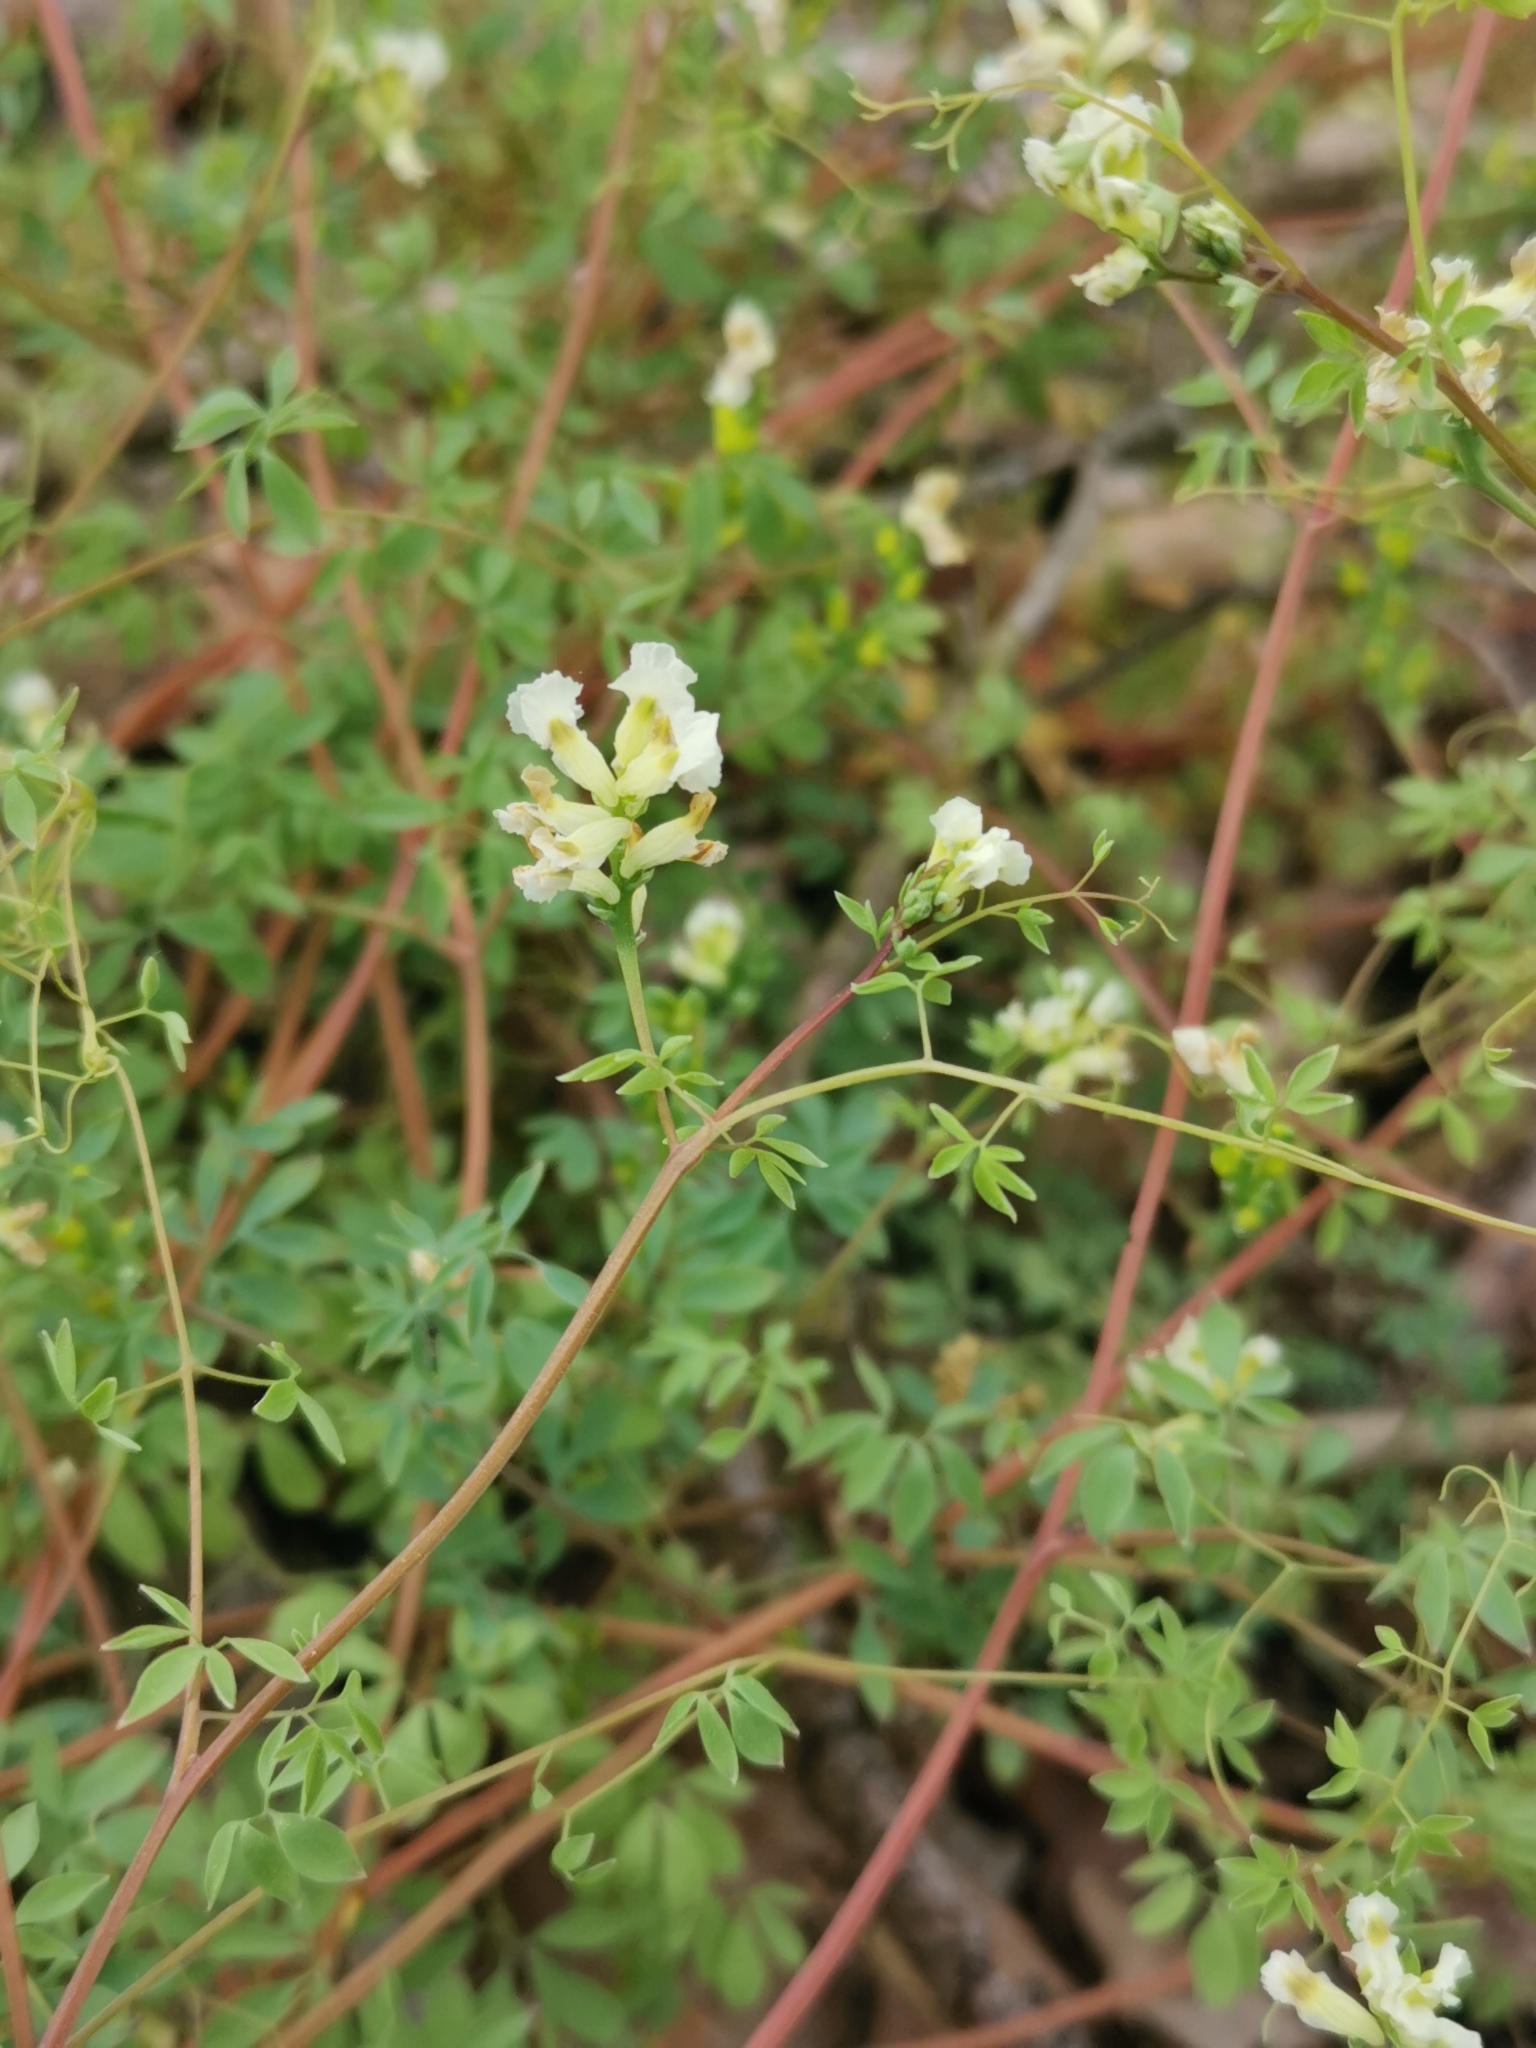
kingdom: Plantae
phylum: Tracheophyta
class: Magnoliopsida
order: Ranunculales
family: Papaveraceae
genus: Ceratocapnos
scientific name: Ceratocapnos claviculata
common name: Climbing corydalis
